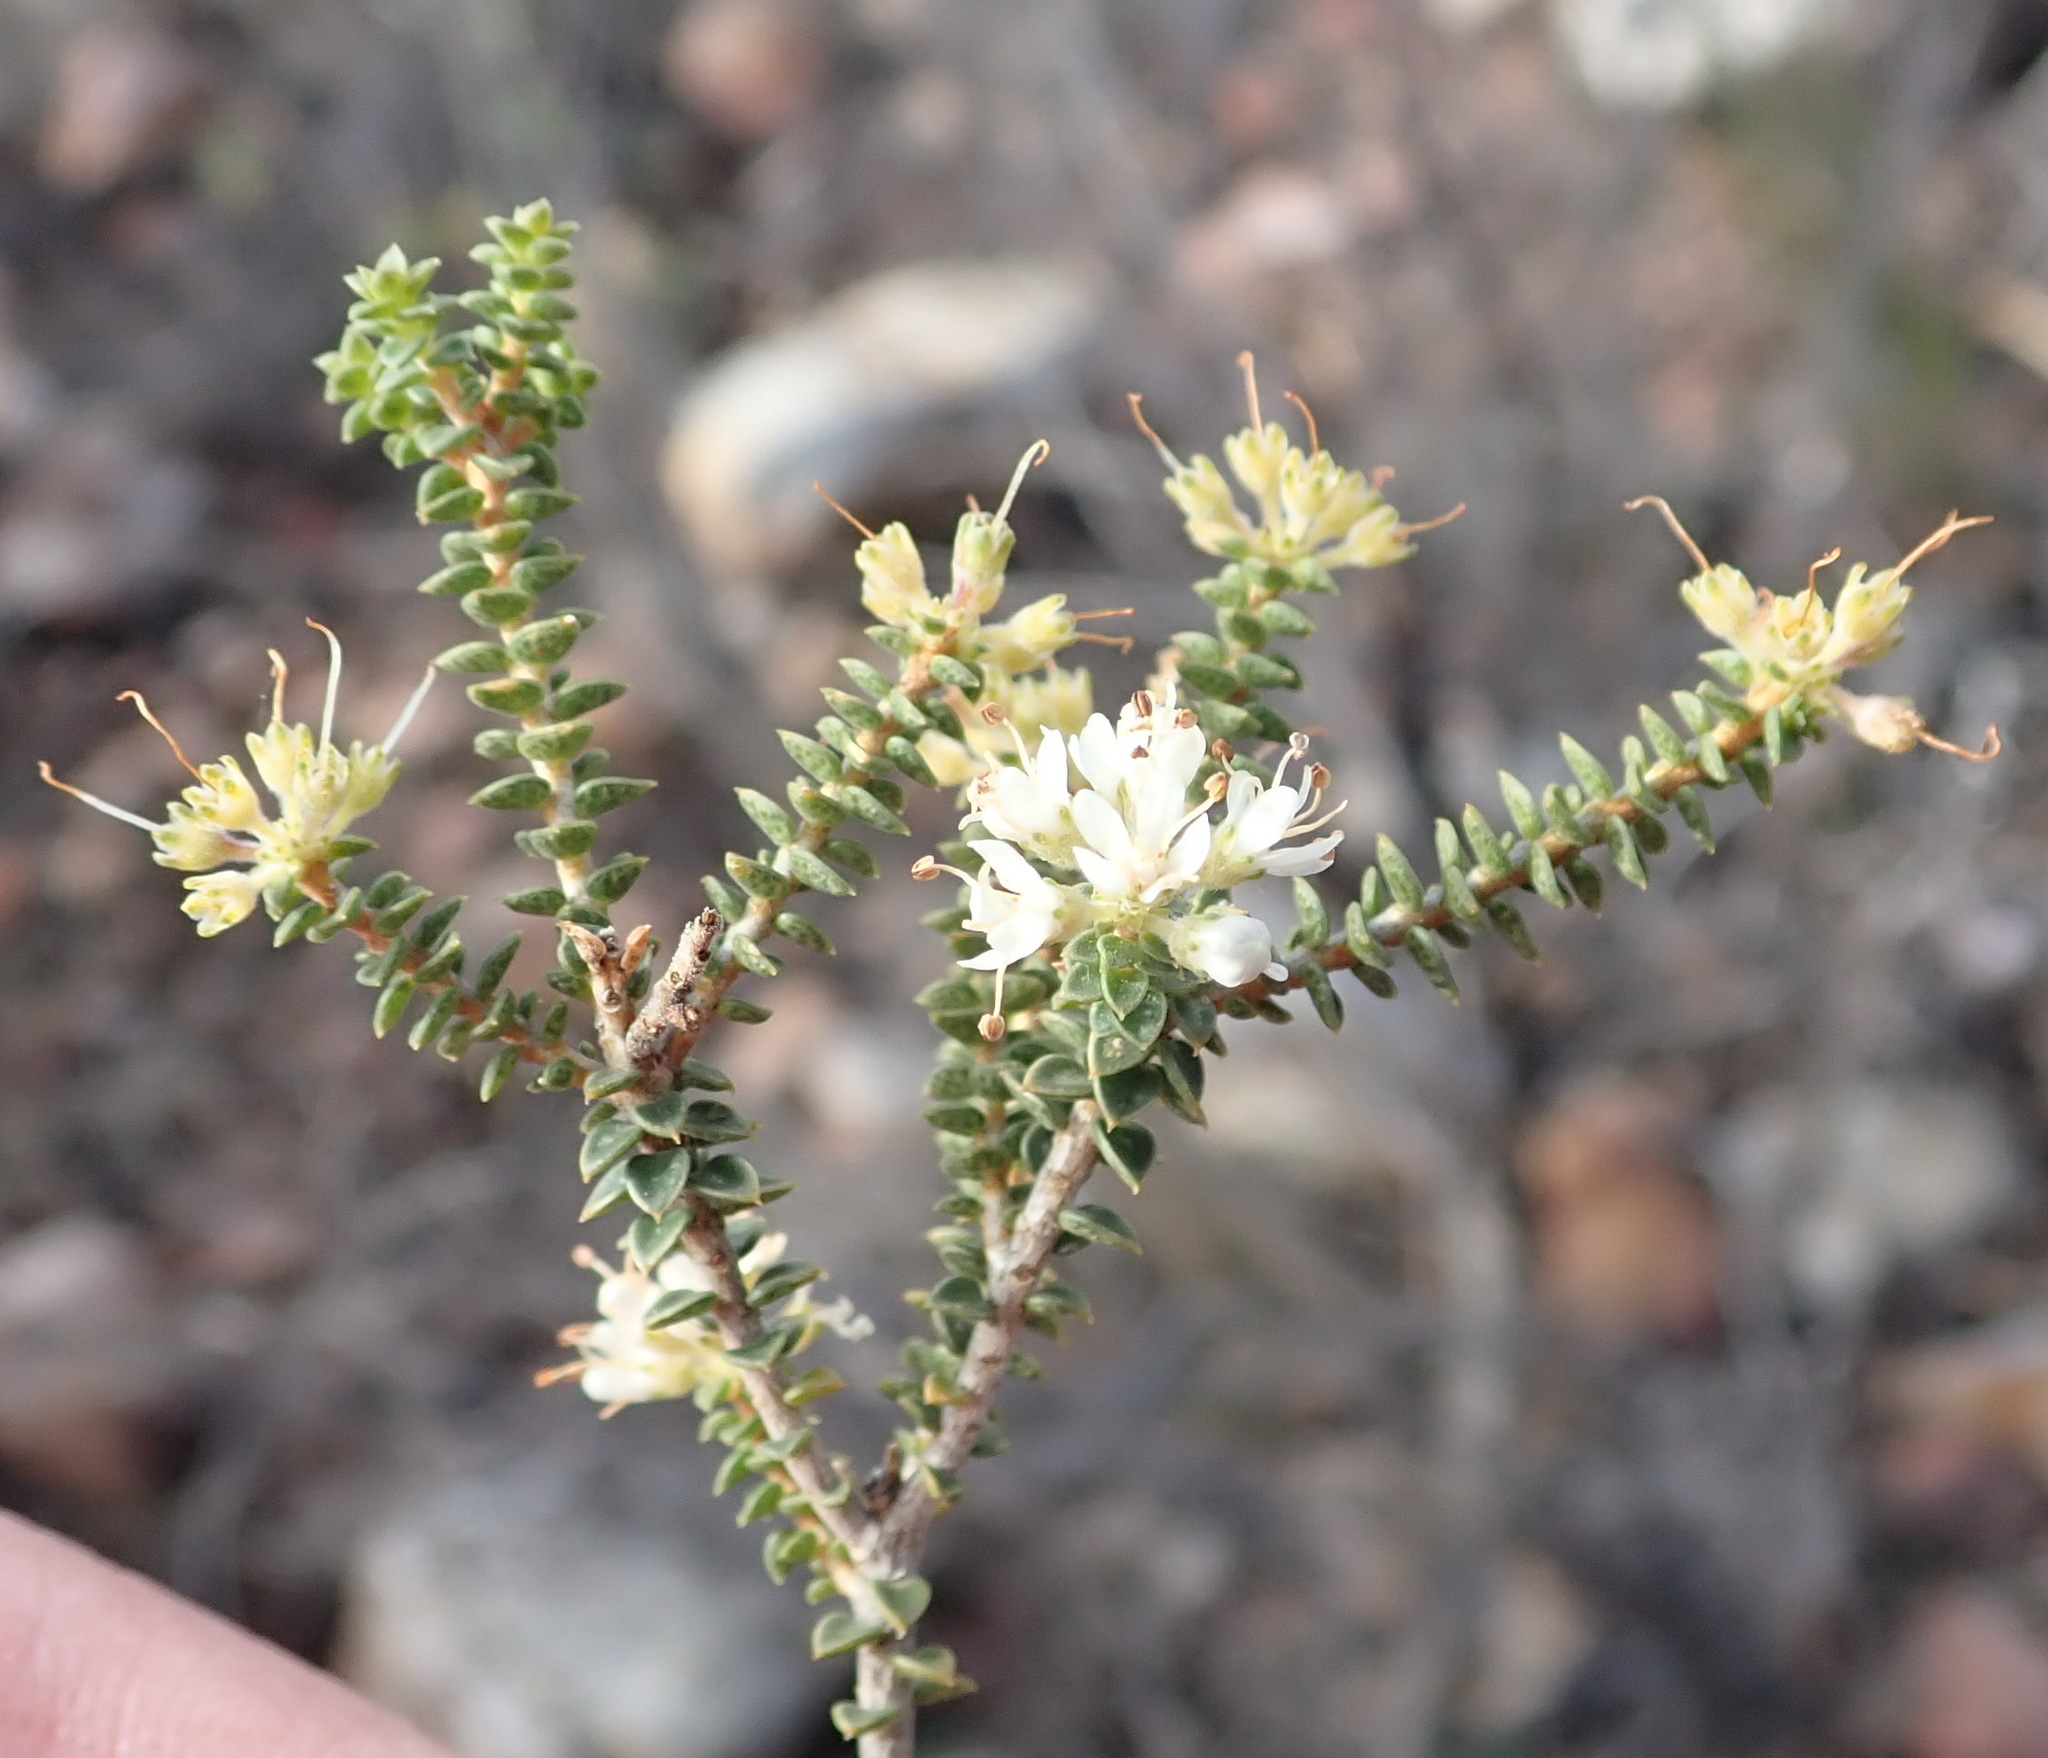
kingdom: Plantae
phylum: Tracheophyta
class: Magnoliopsida
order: Sapindales
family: Rutaceae
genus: Agathosma
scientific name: Agathosma recurvifolia
